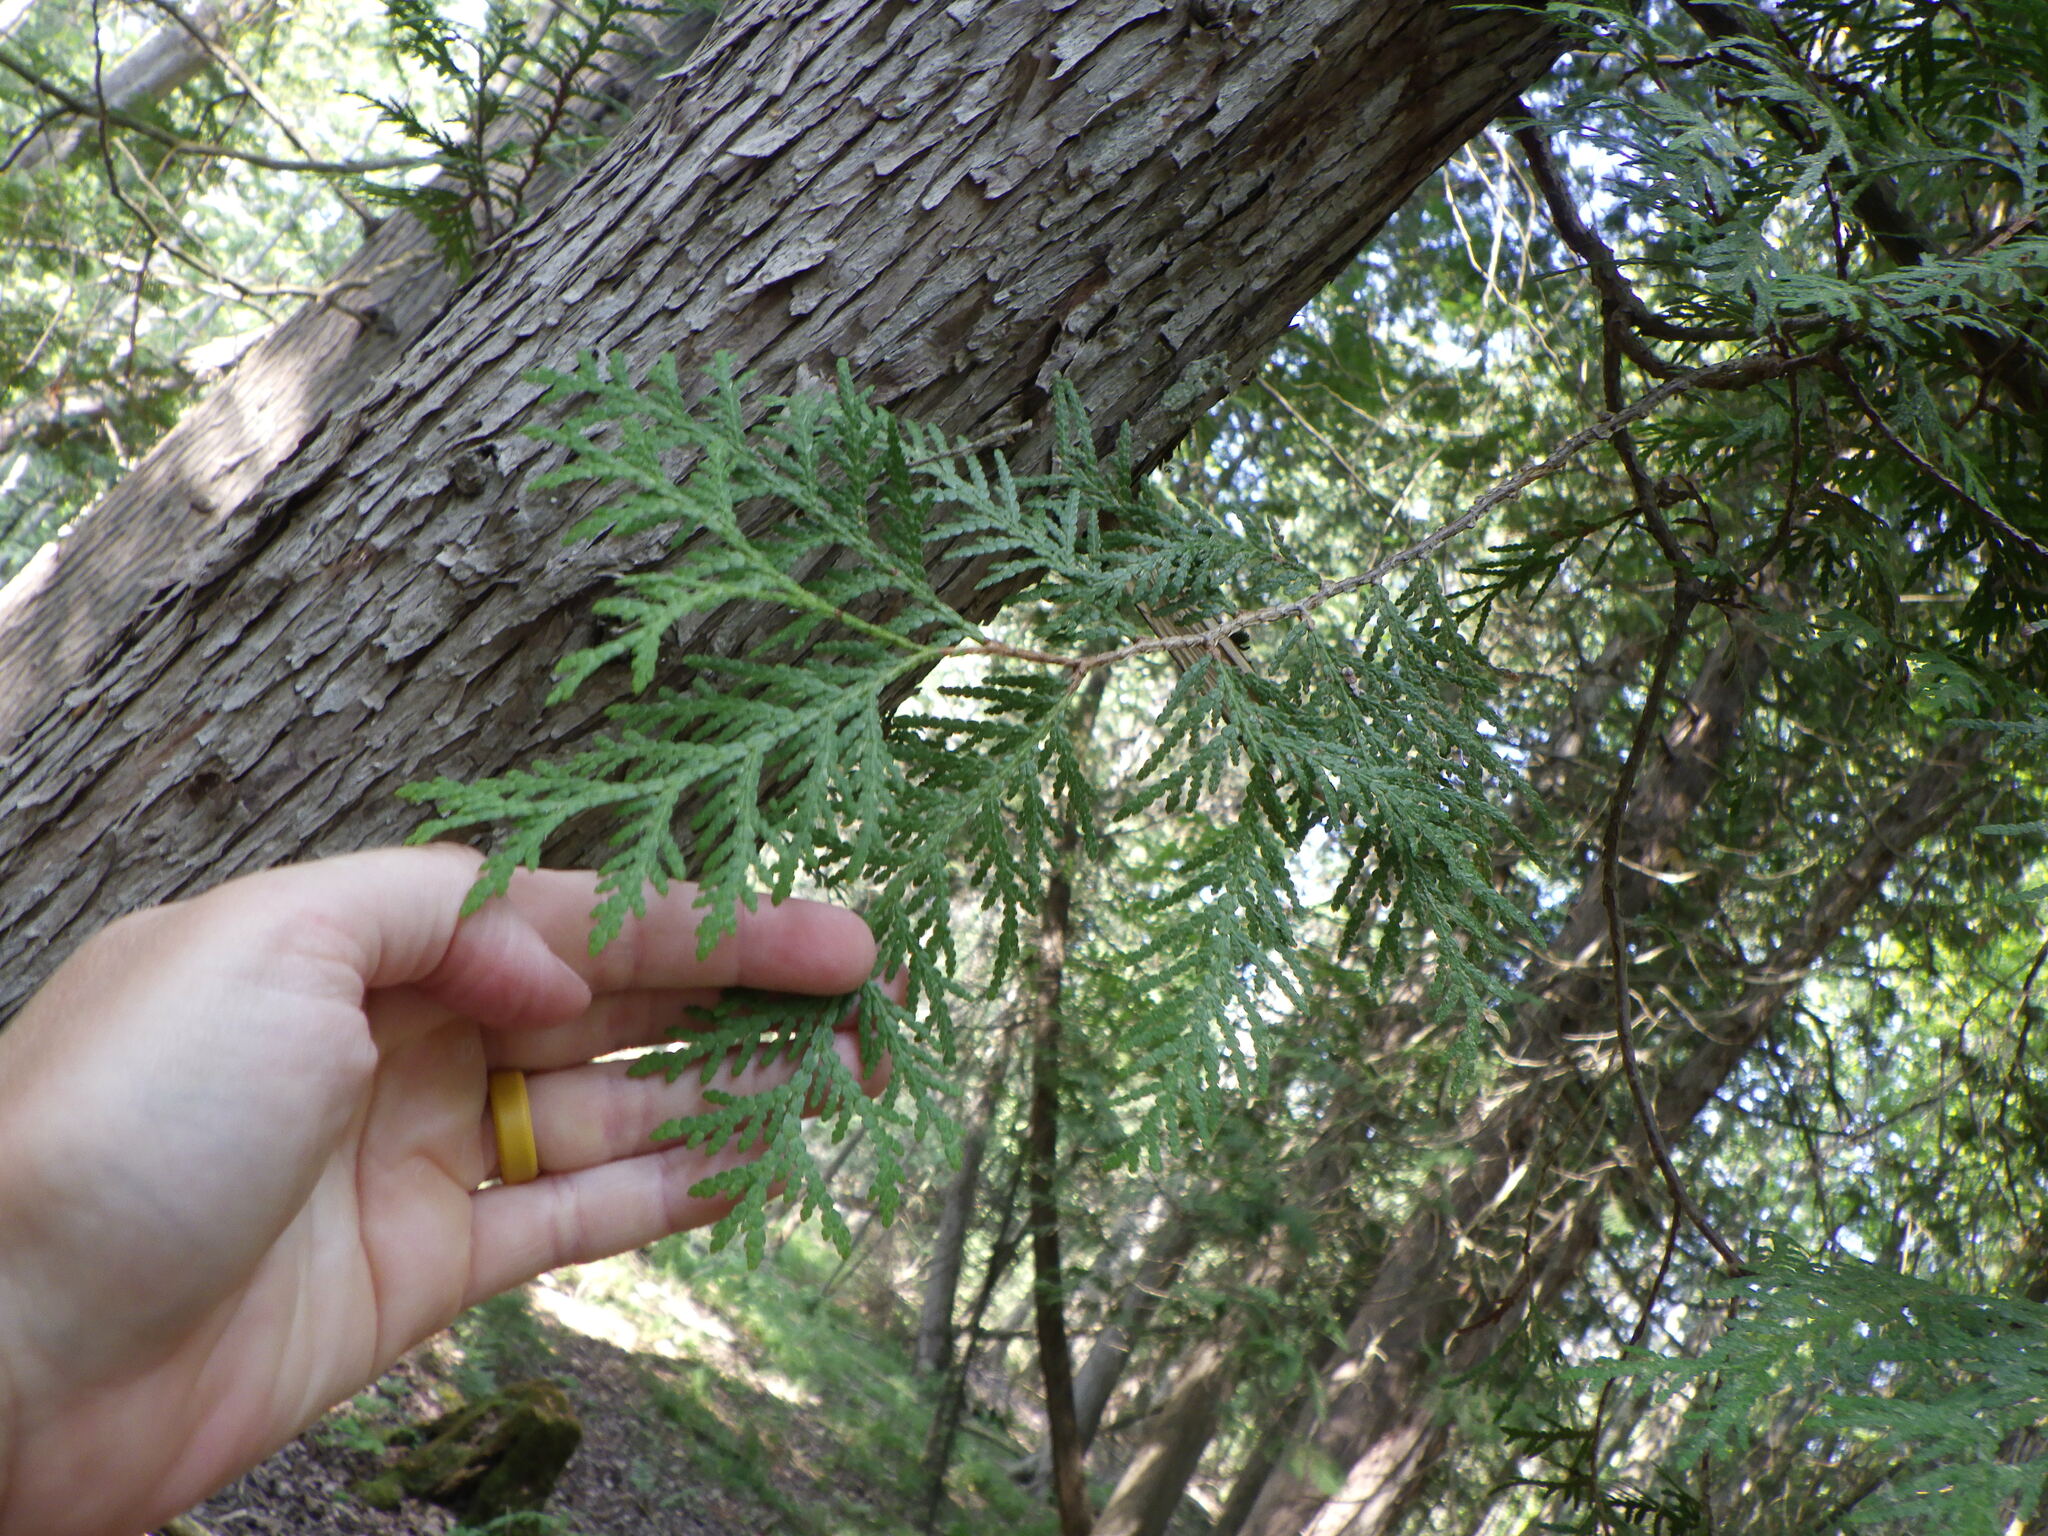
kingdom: Plantae
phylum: Tracheophyta
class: Pinopsida
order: Pinales
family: Cupressaceae
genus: Thuja
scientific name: Thuja occidentalis
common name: Northern white-cedar
